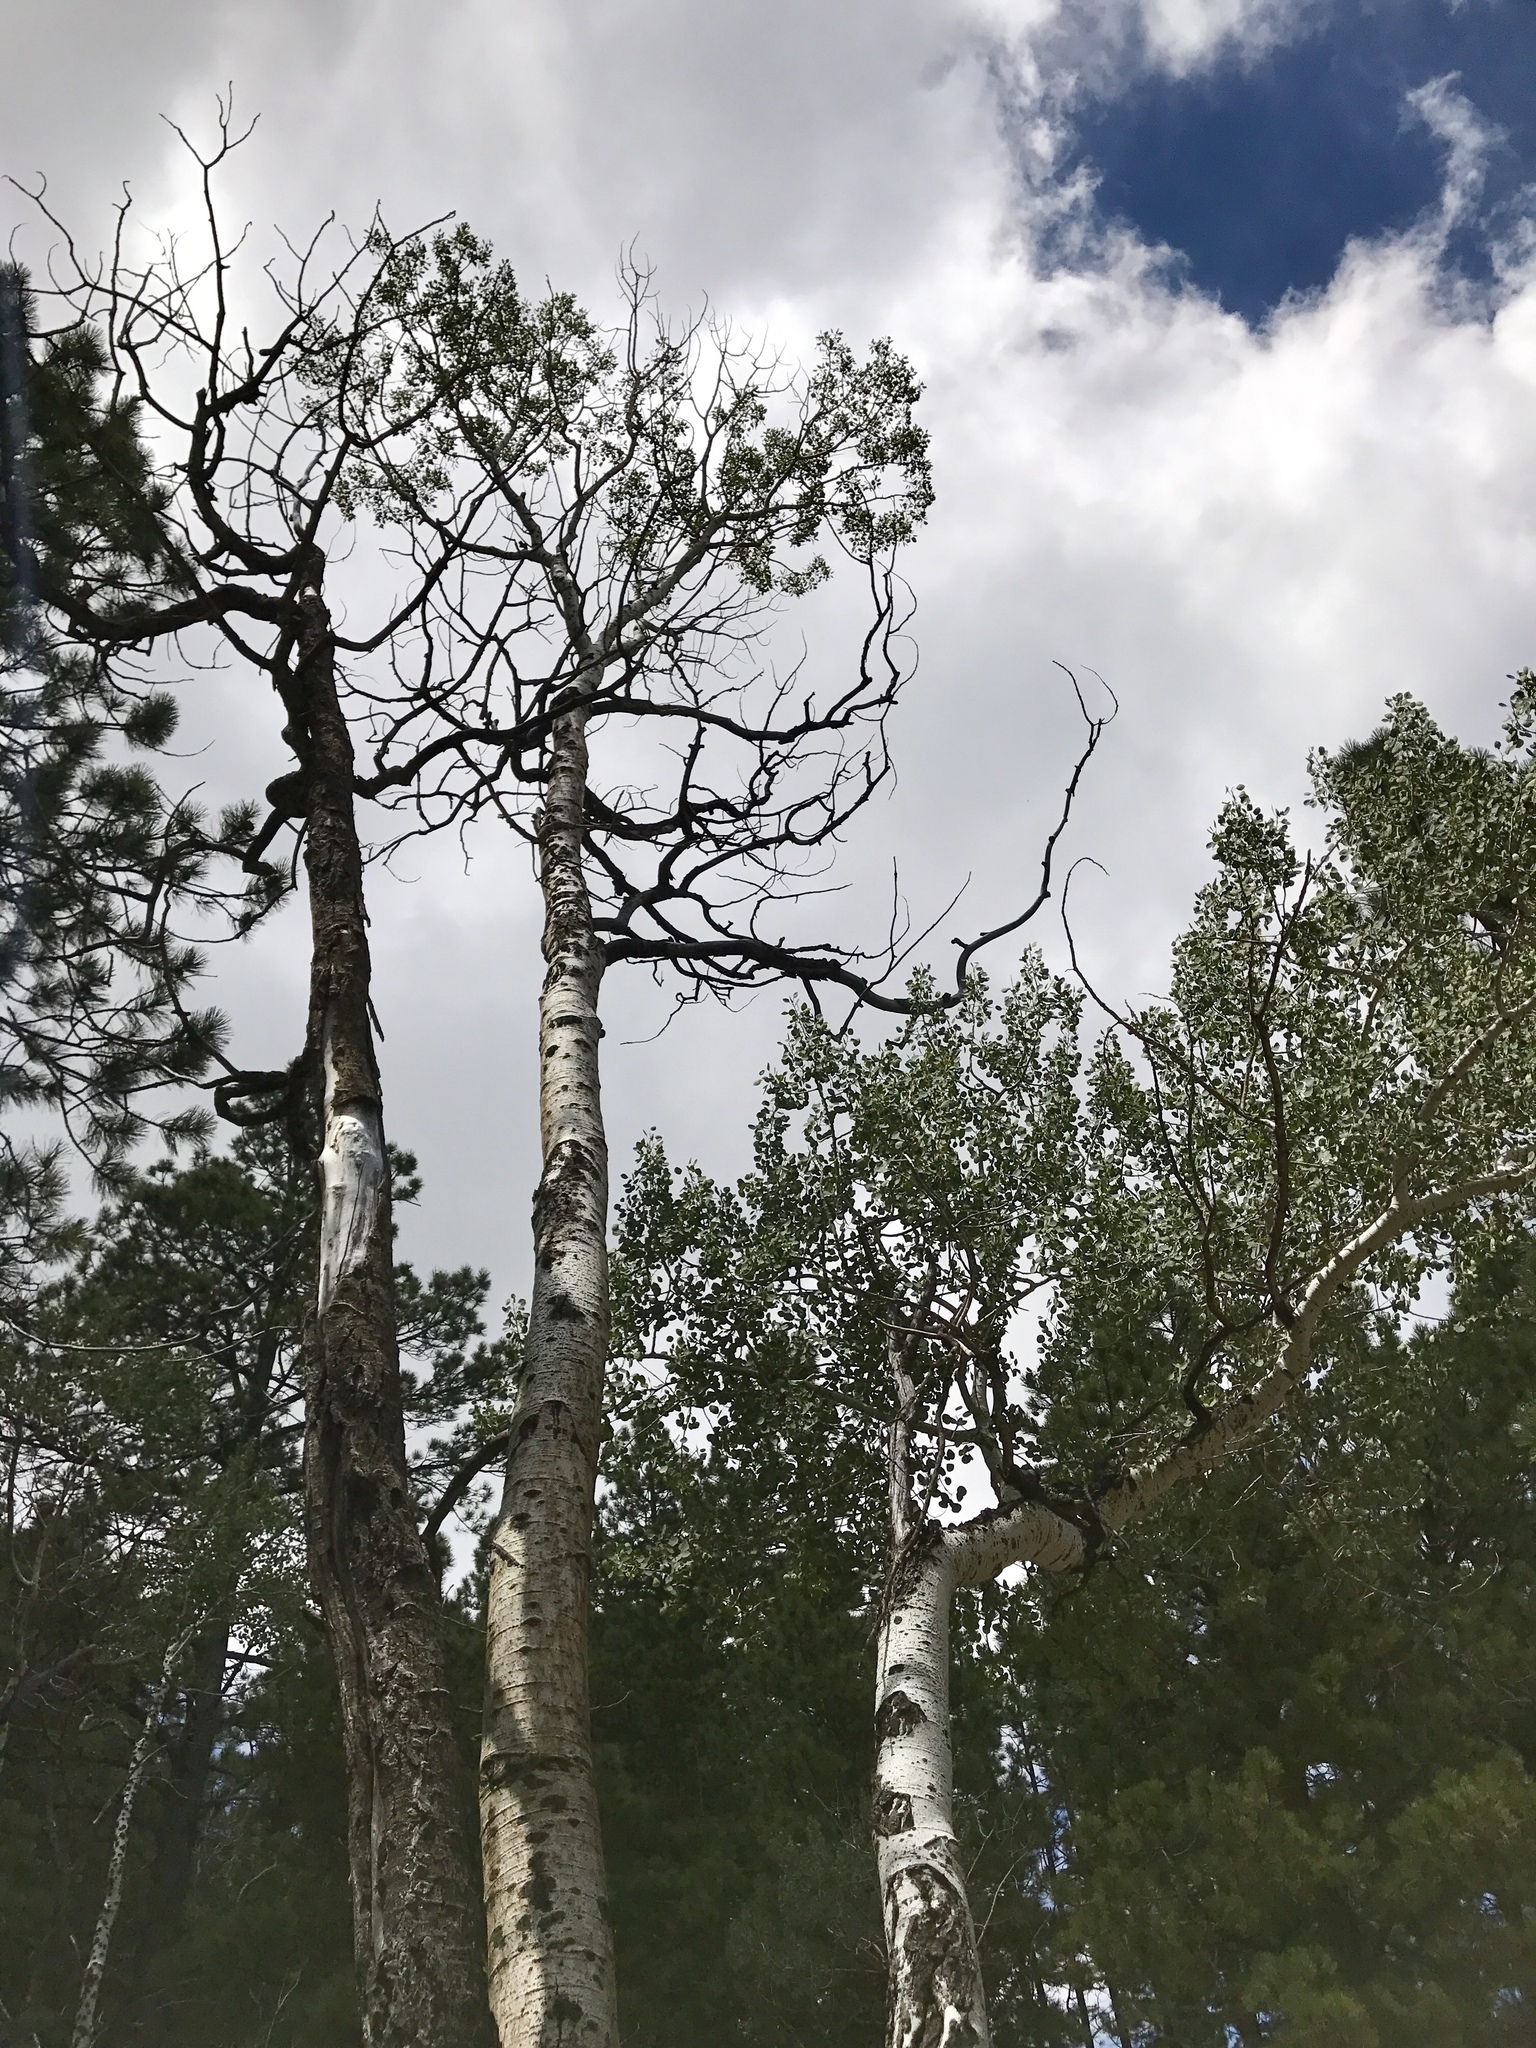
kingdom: Plantae
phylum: Tracheophyta
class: Magnoliopsida
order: Malpighiales
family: Salicaceae
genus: Populus
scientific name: Populus tremuloides
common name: Quaking aspen
